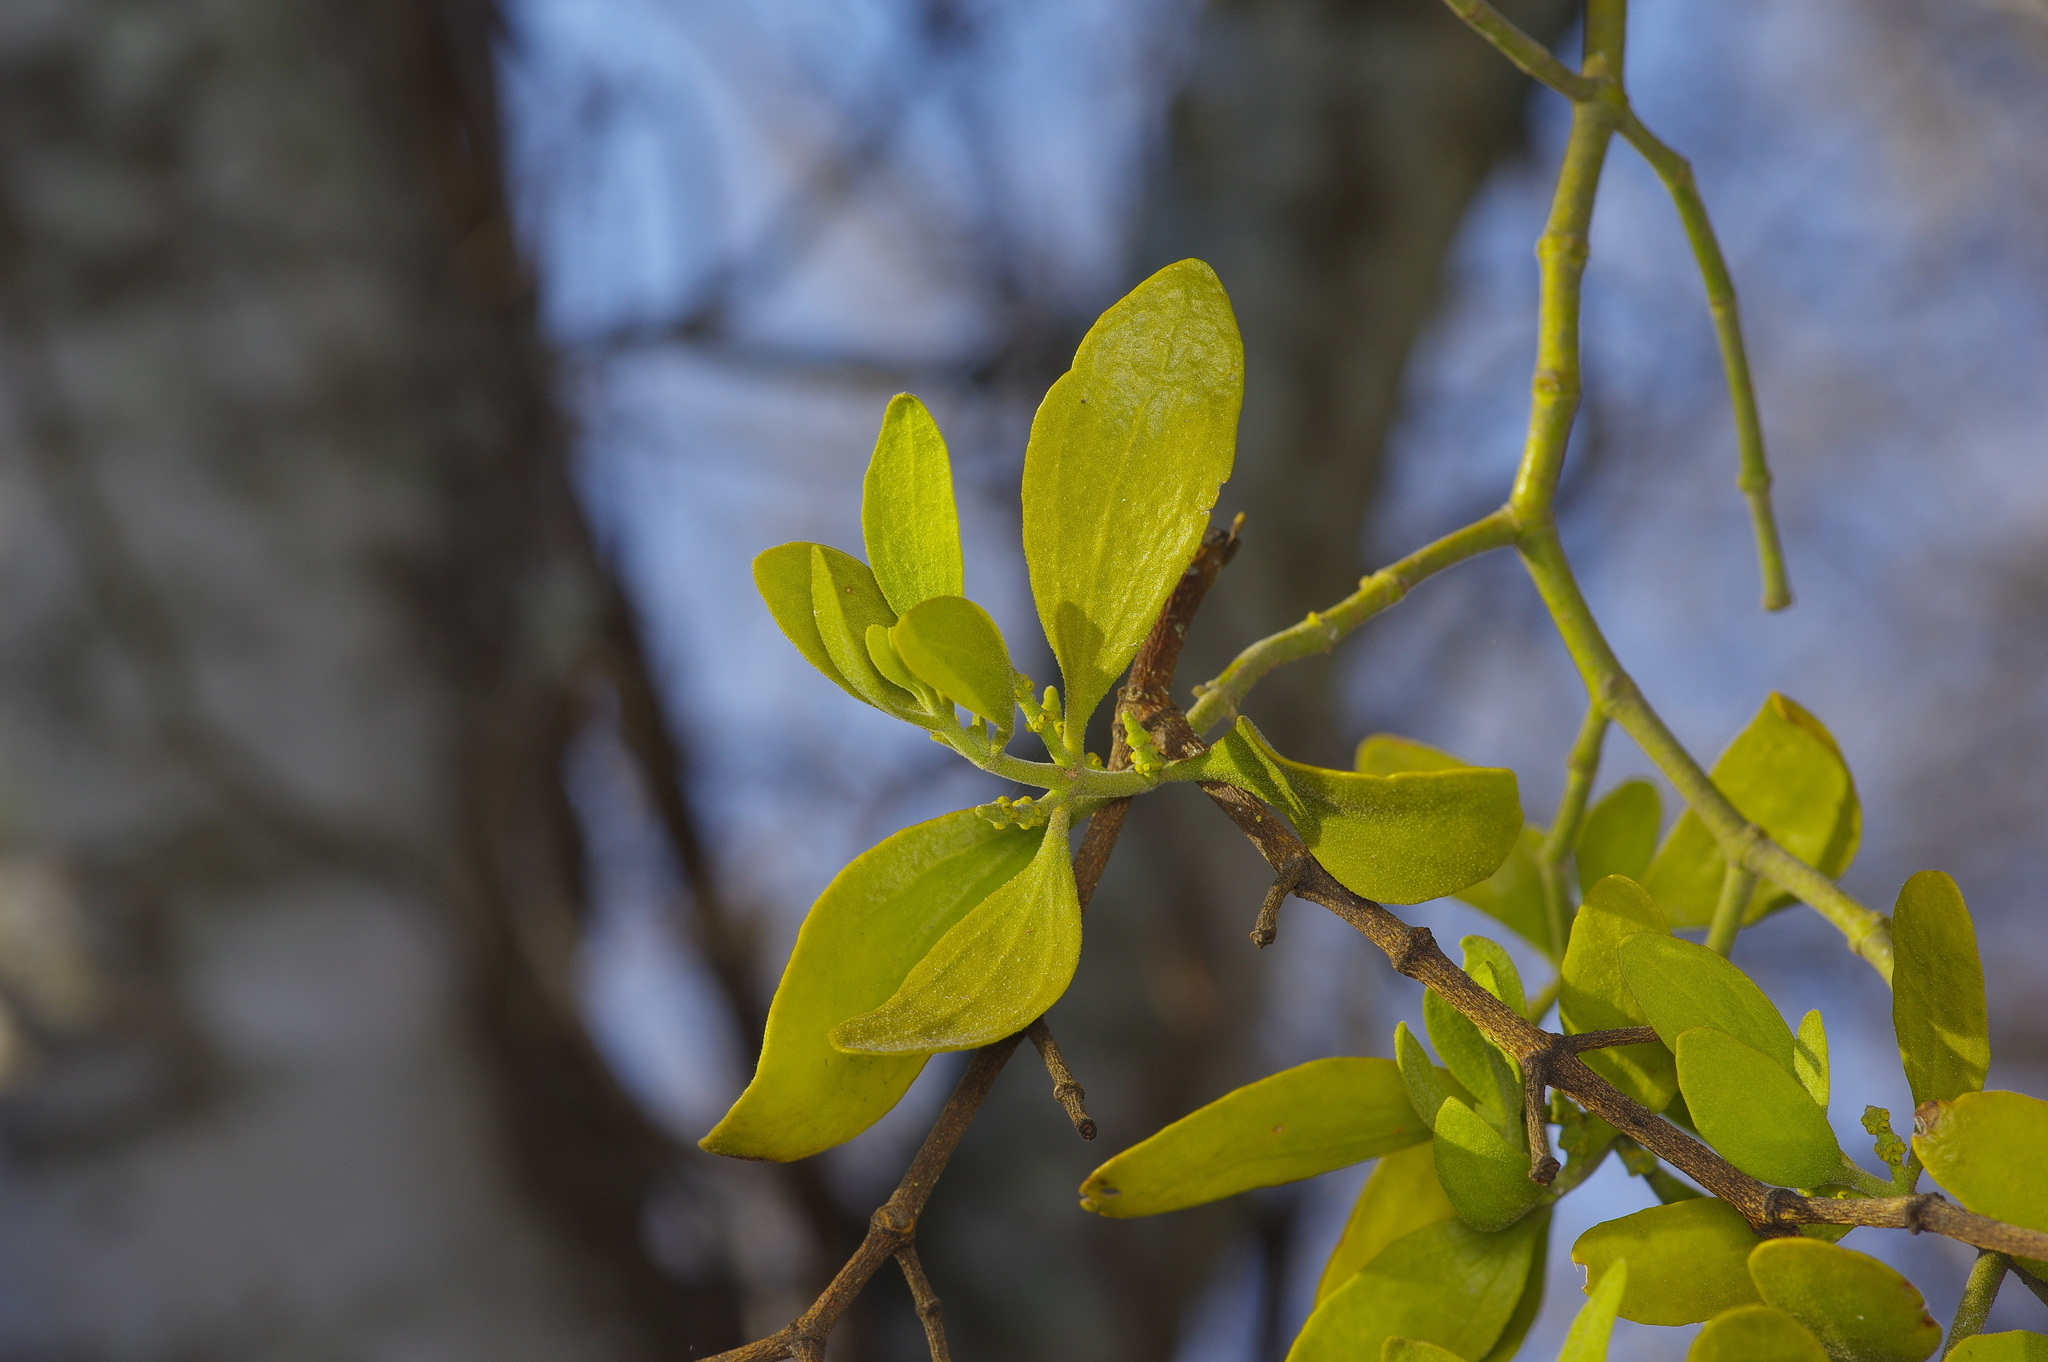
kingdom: Plantae
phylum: Tracheophyta
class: Magnoliopsida
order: Santalales
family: Viscaceae
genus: Phoradendron
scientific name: Phoradendron leucarpum
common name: Pacific mistletoe
